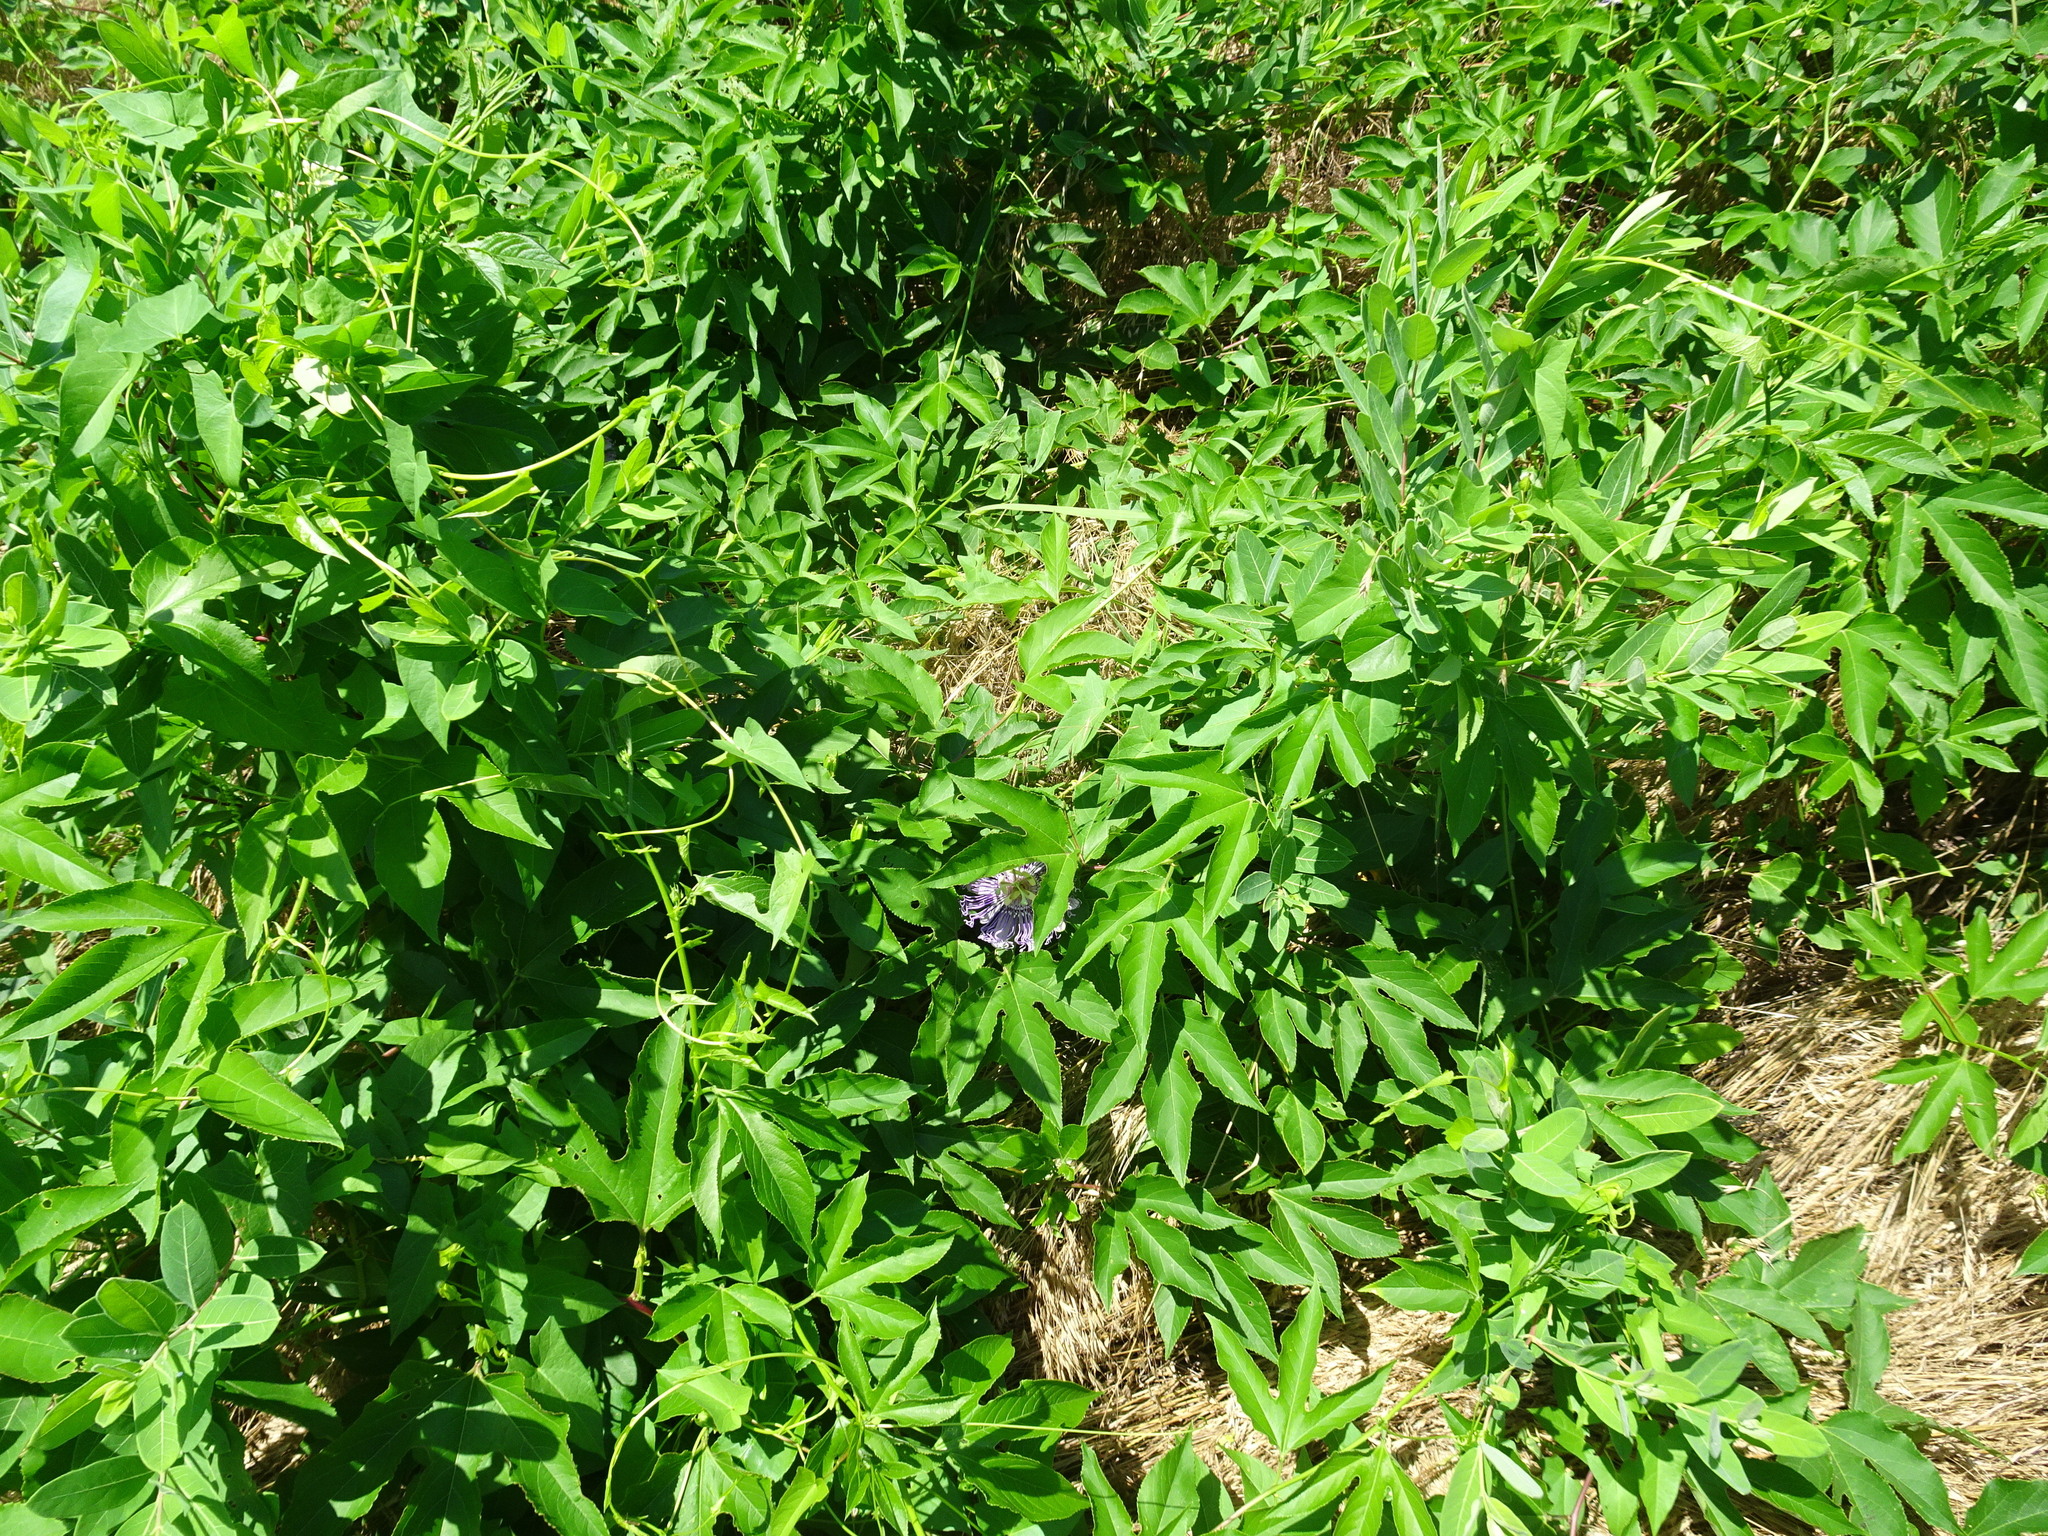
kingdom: Plantae
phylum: Tracheophyta
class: Magnoliopsida
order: Malpighiales
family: Passifloraceae
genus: Passiflora
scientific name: Passiflora incarnata
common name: Apricot-vine
